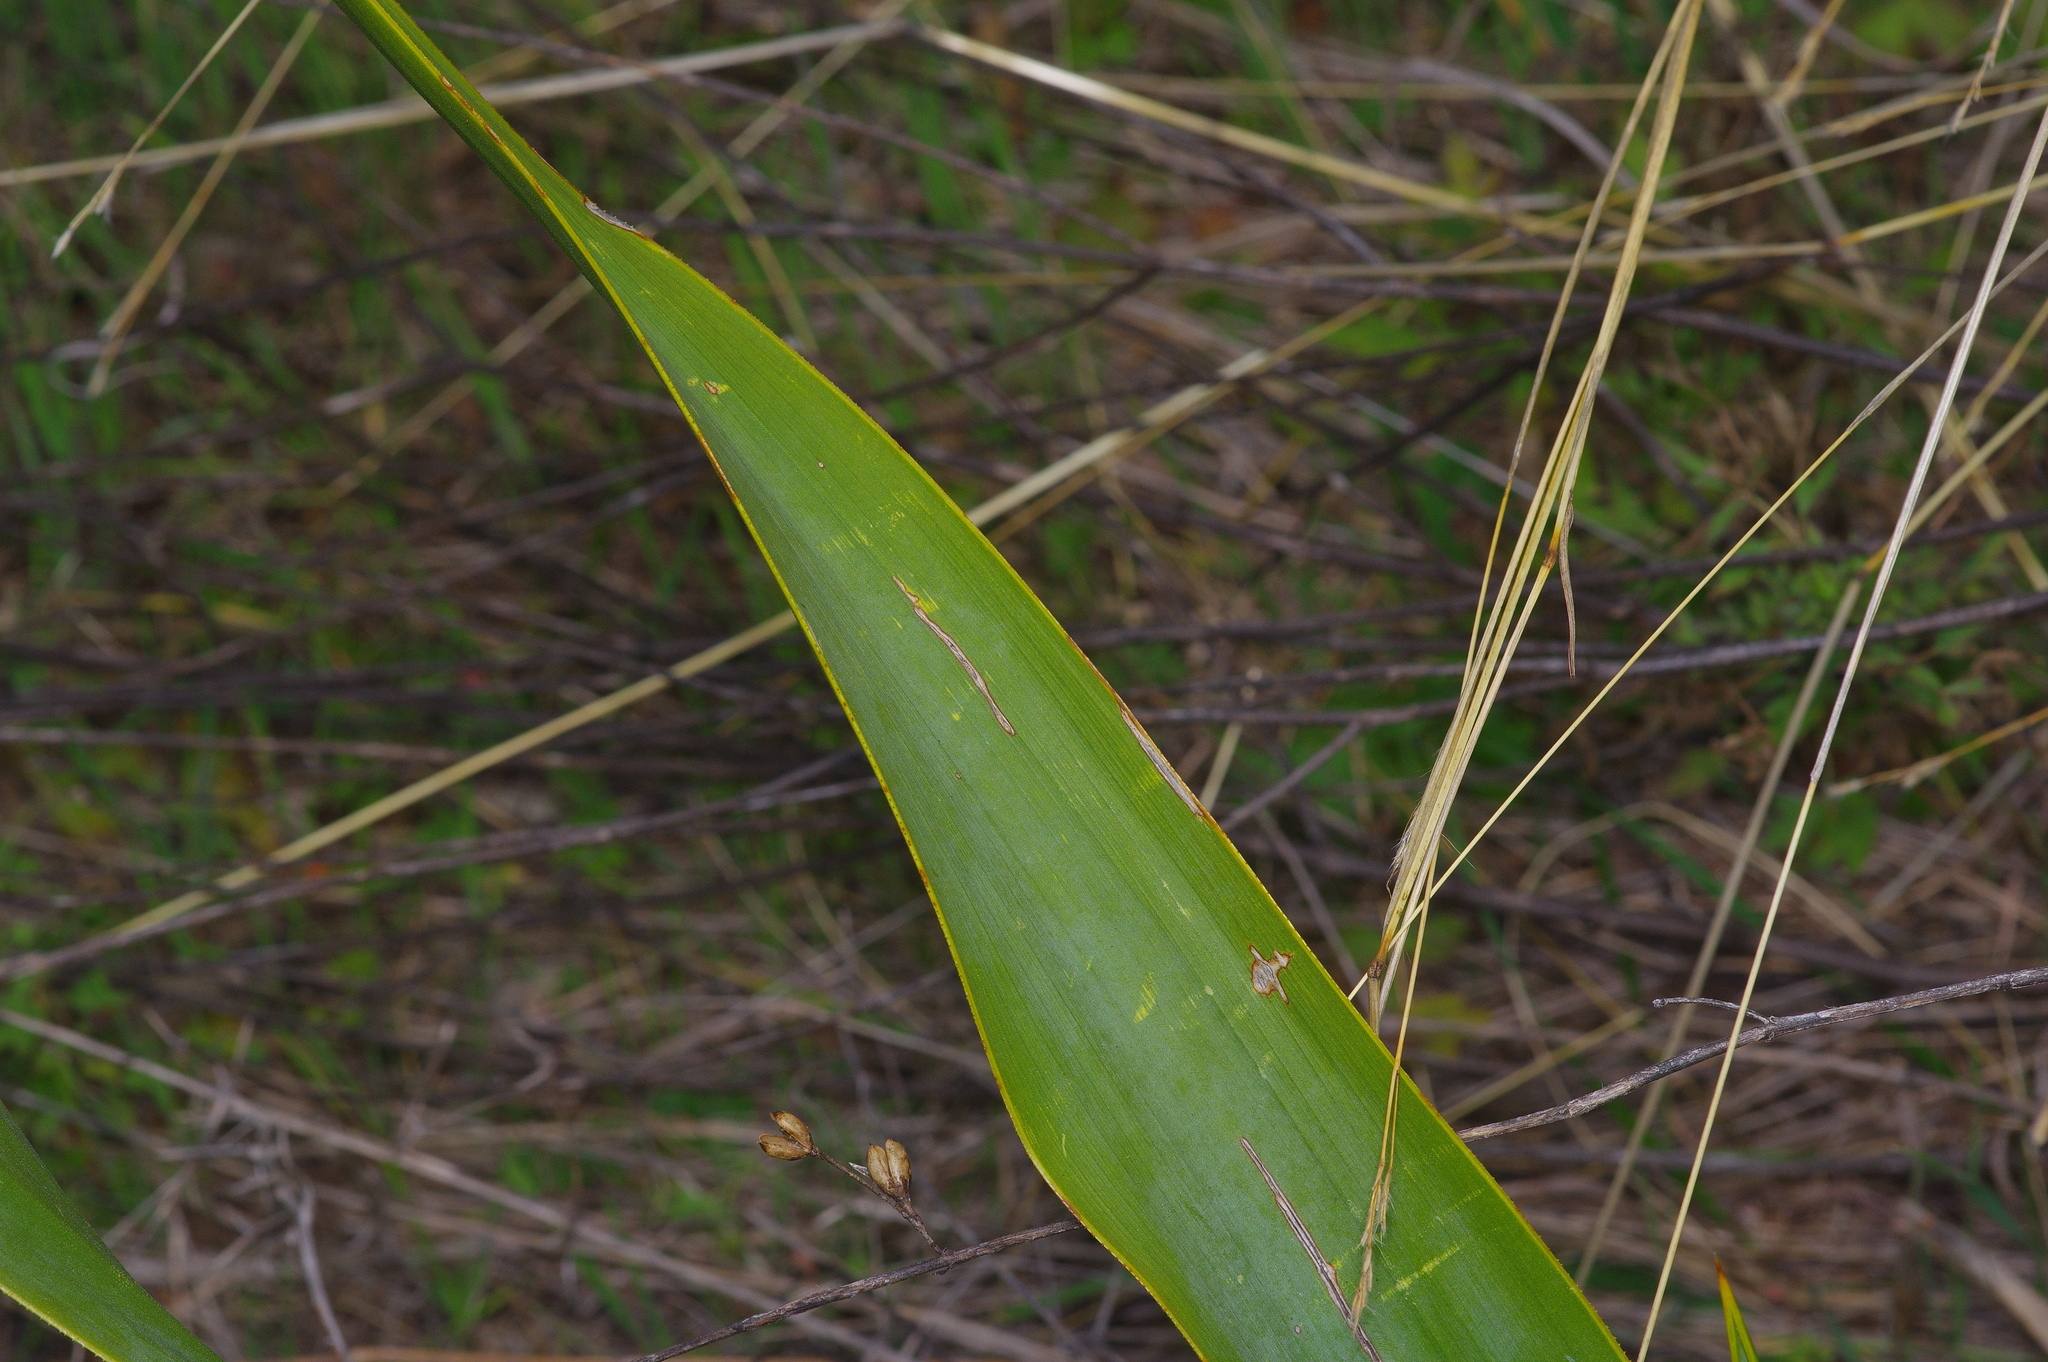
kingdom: Plantae
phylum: Tracheophyta
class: Liliopsida
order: Asparagales
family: Asparagaceae
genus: Yucca
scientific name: Yucca rupicola
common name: Twisted-leaf spanish-dagger
